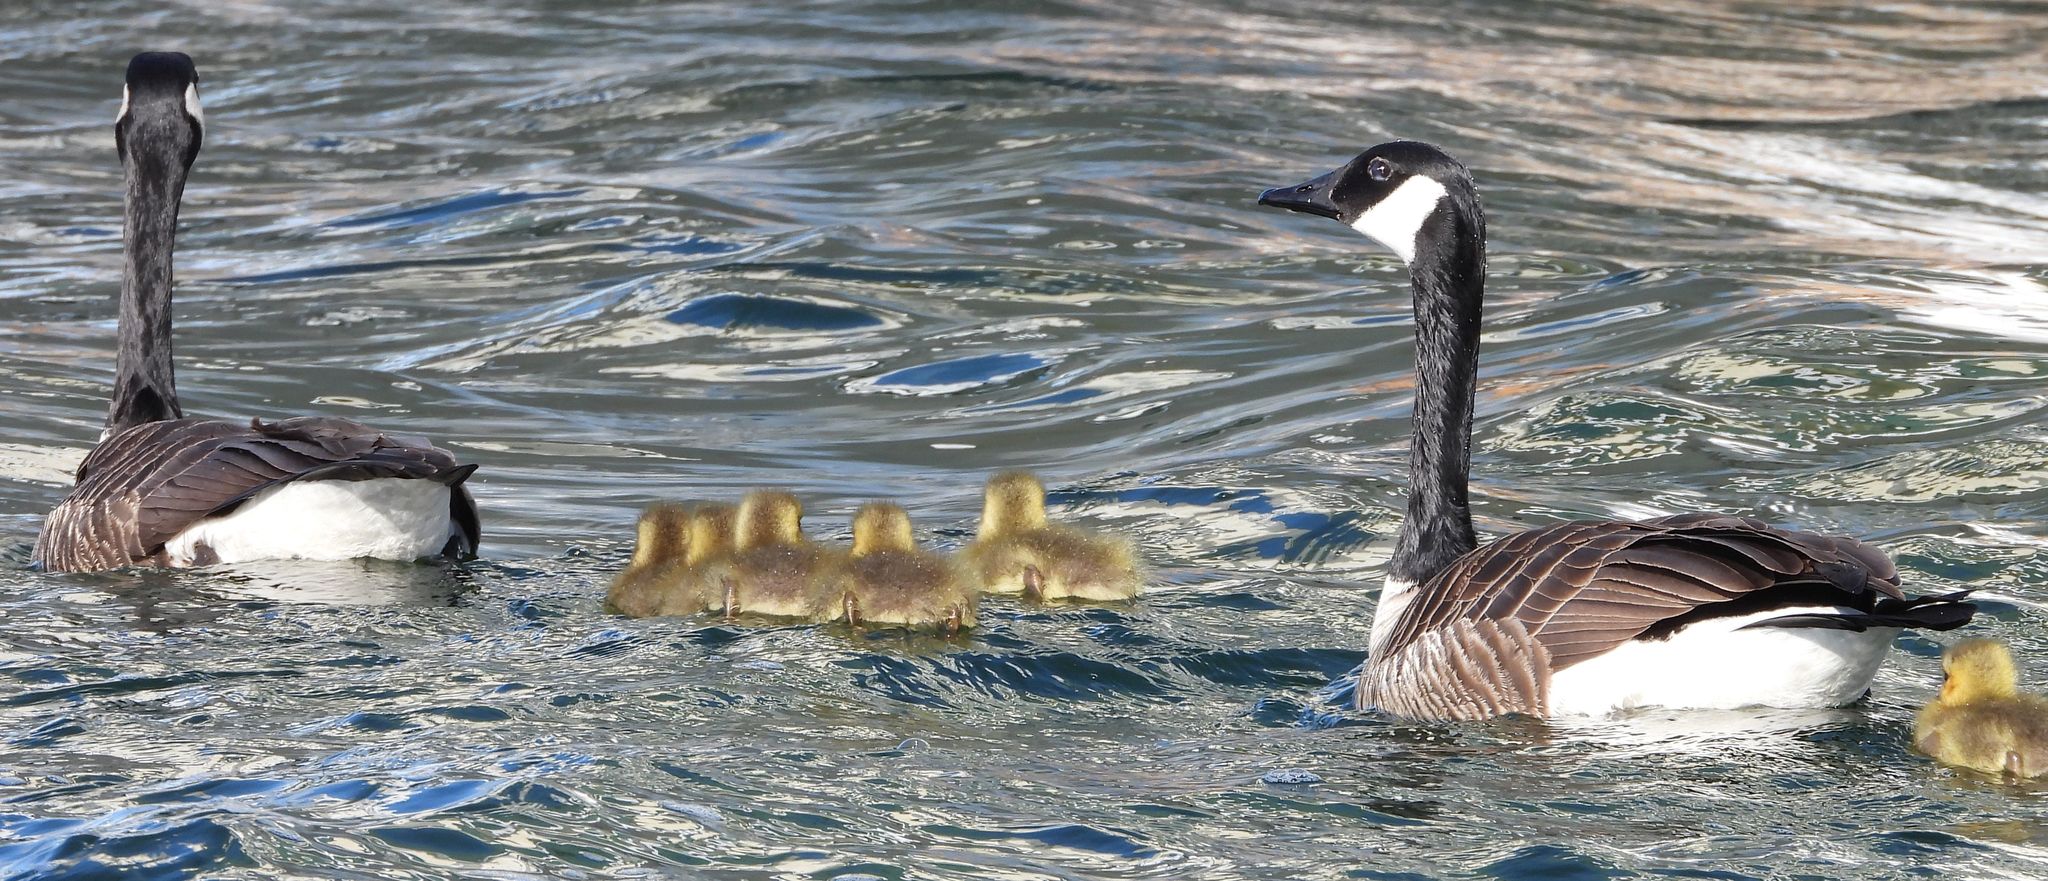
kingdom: Animalia
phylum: Chordata
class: Aves
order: Anseriformes
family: Anatidae
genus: Branta
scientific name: Branta canadensis
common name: Canada goose
